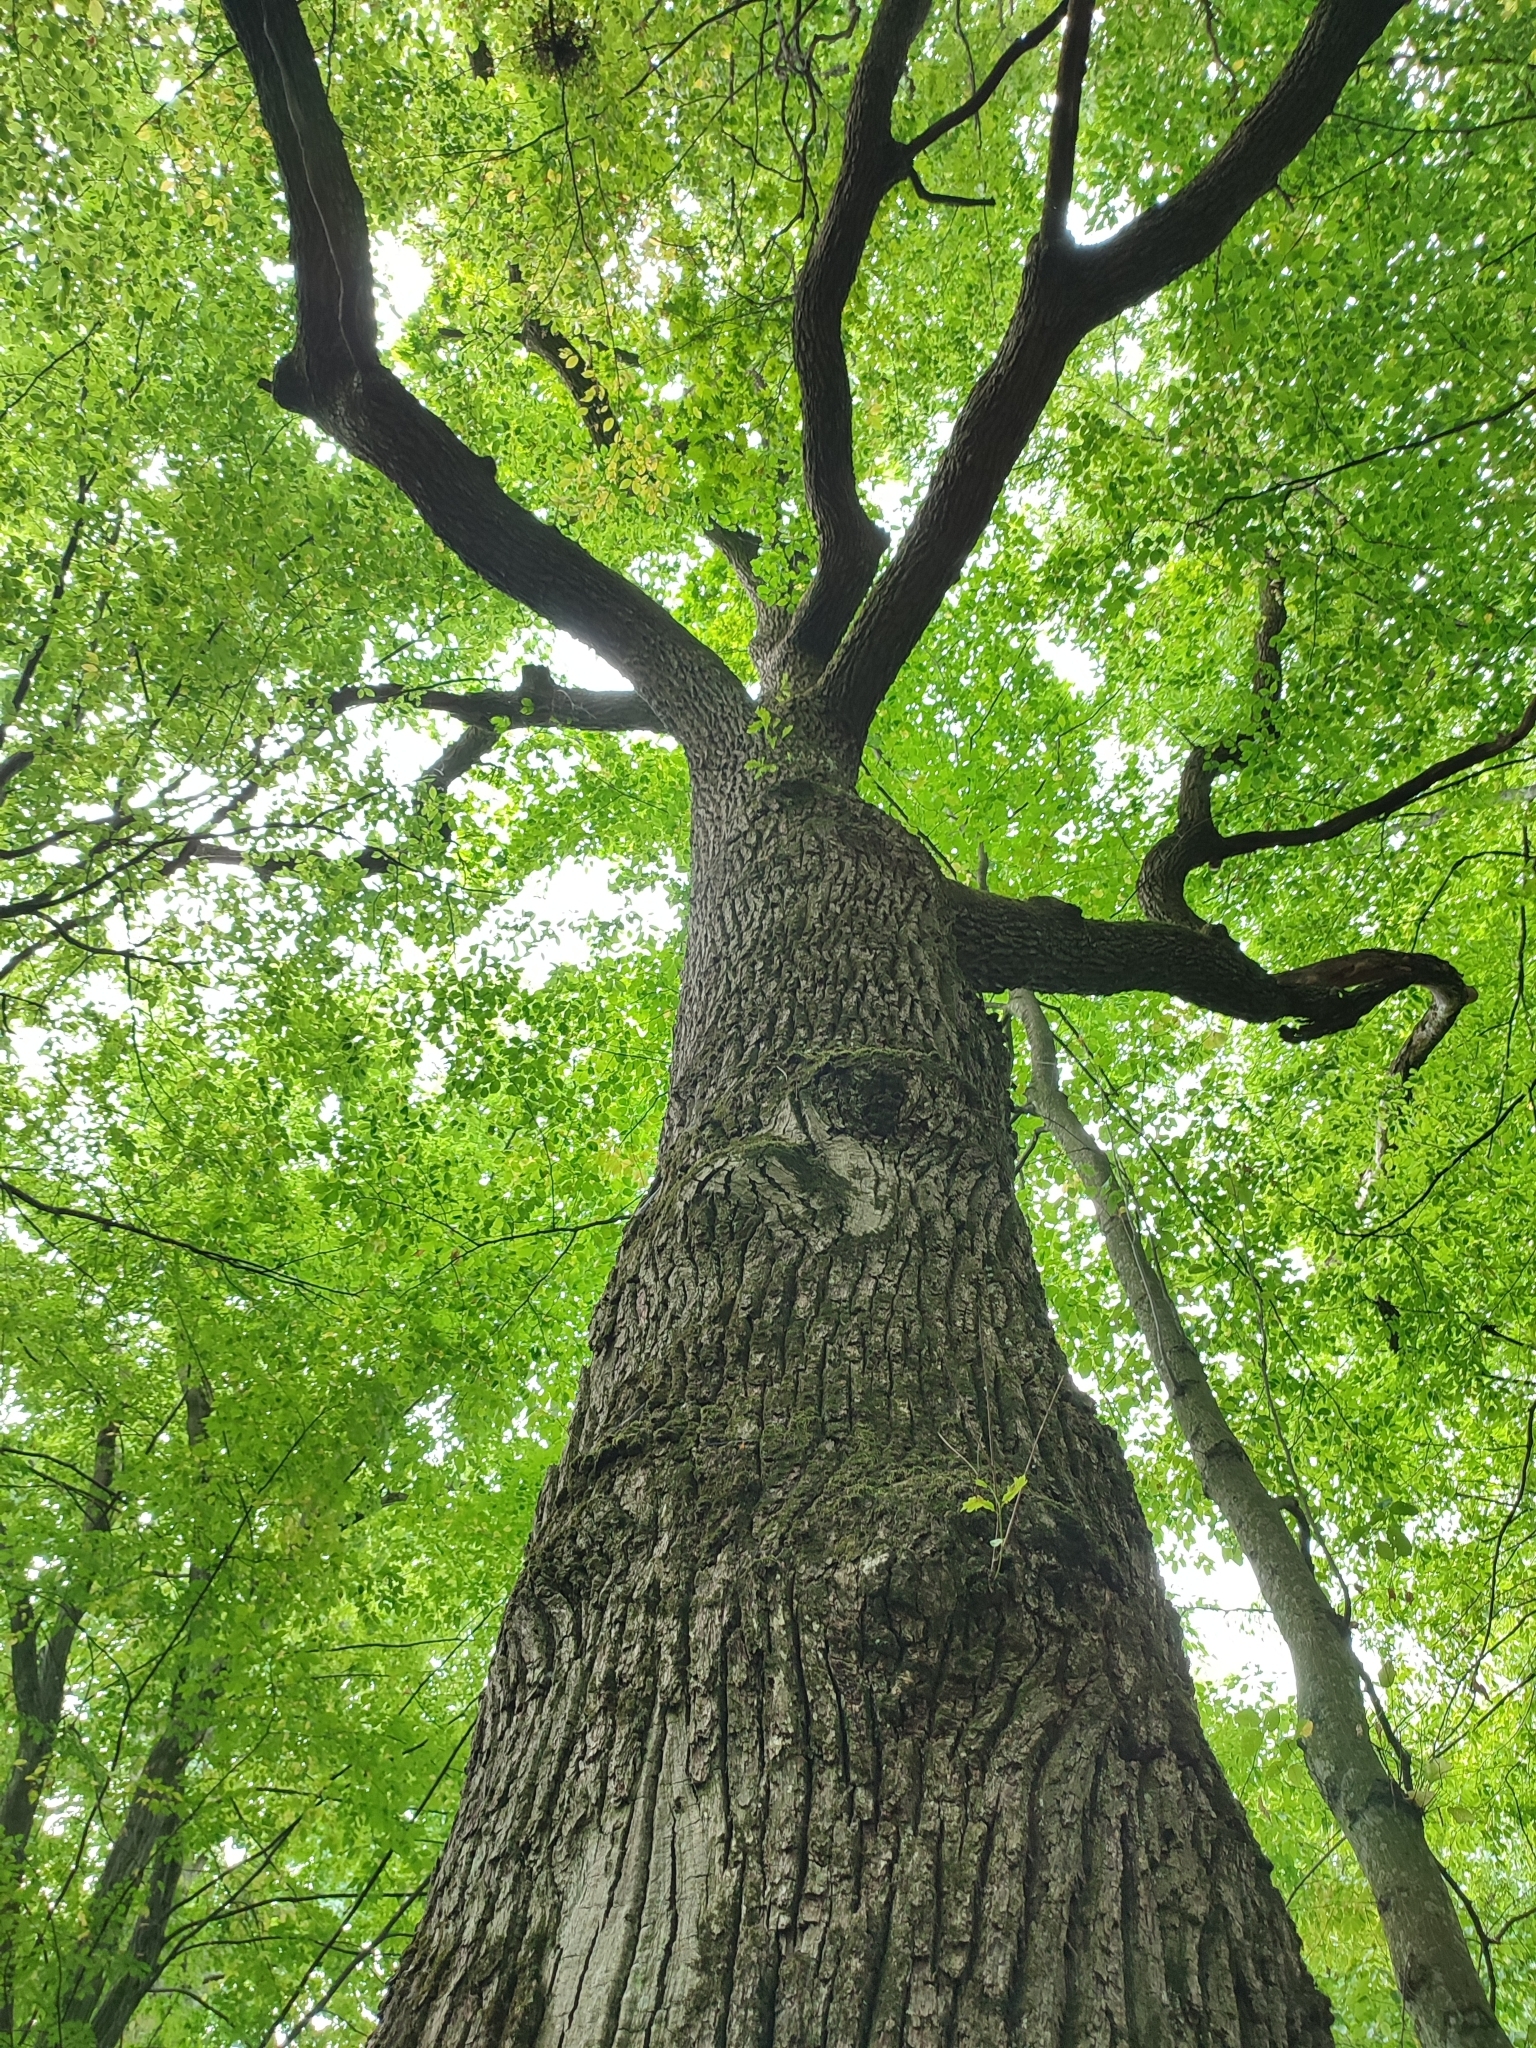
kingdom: Plantae
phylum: Tracheophyta
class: Magnoliopsida
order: Fagales
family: Fagaceae
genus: Quercus
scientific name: Quercus robur
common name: Pedunculate oak
